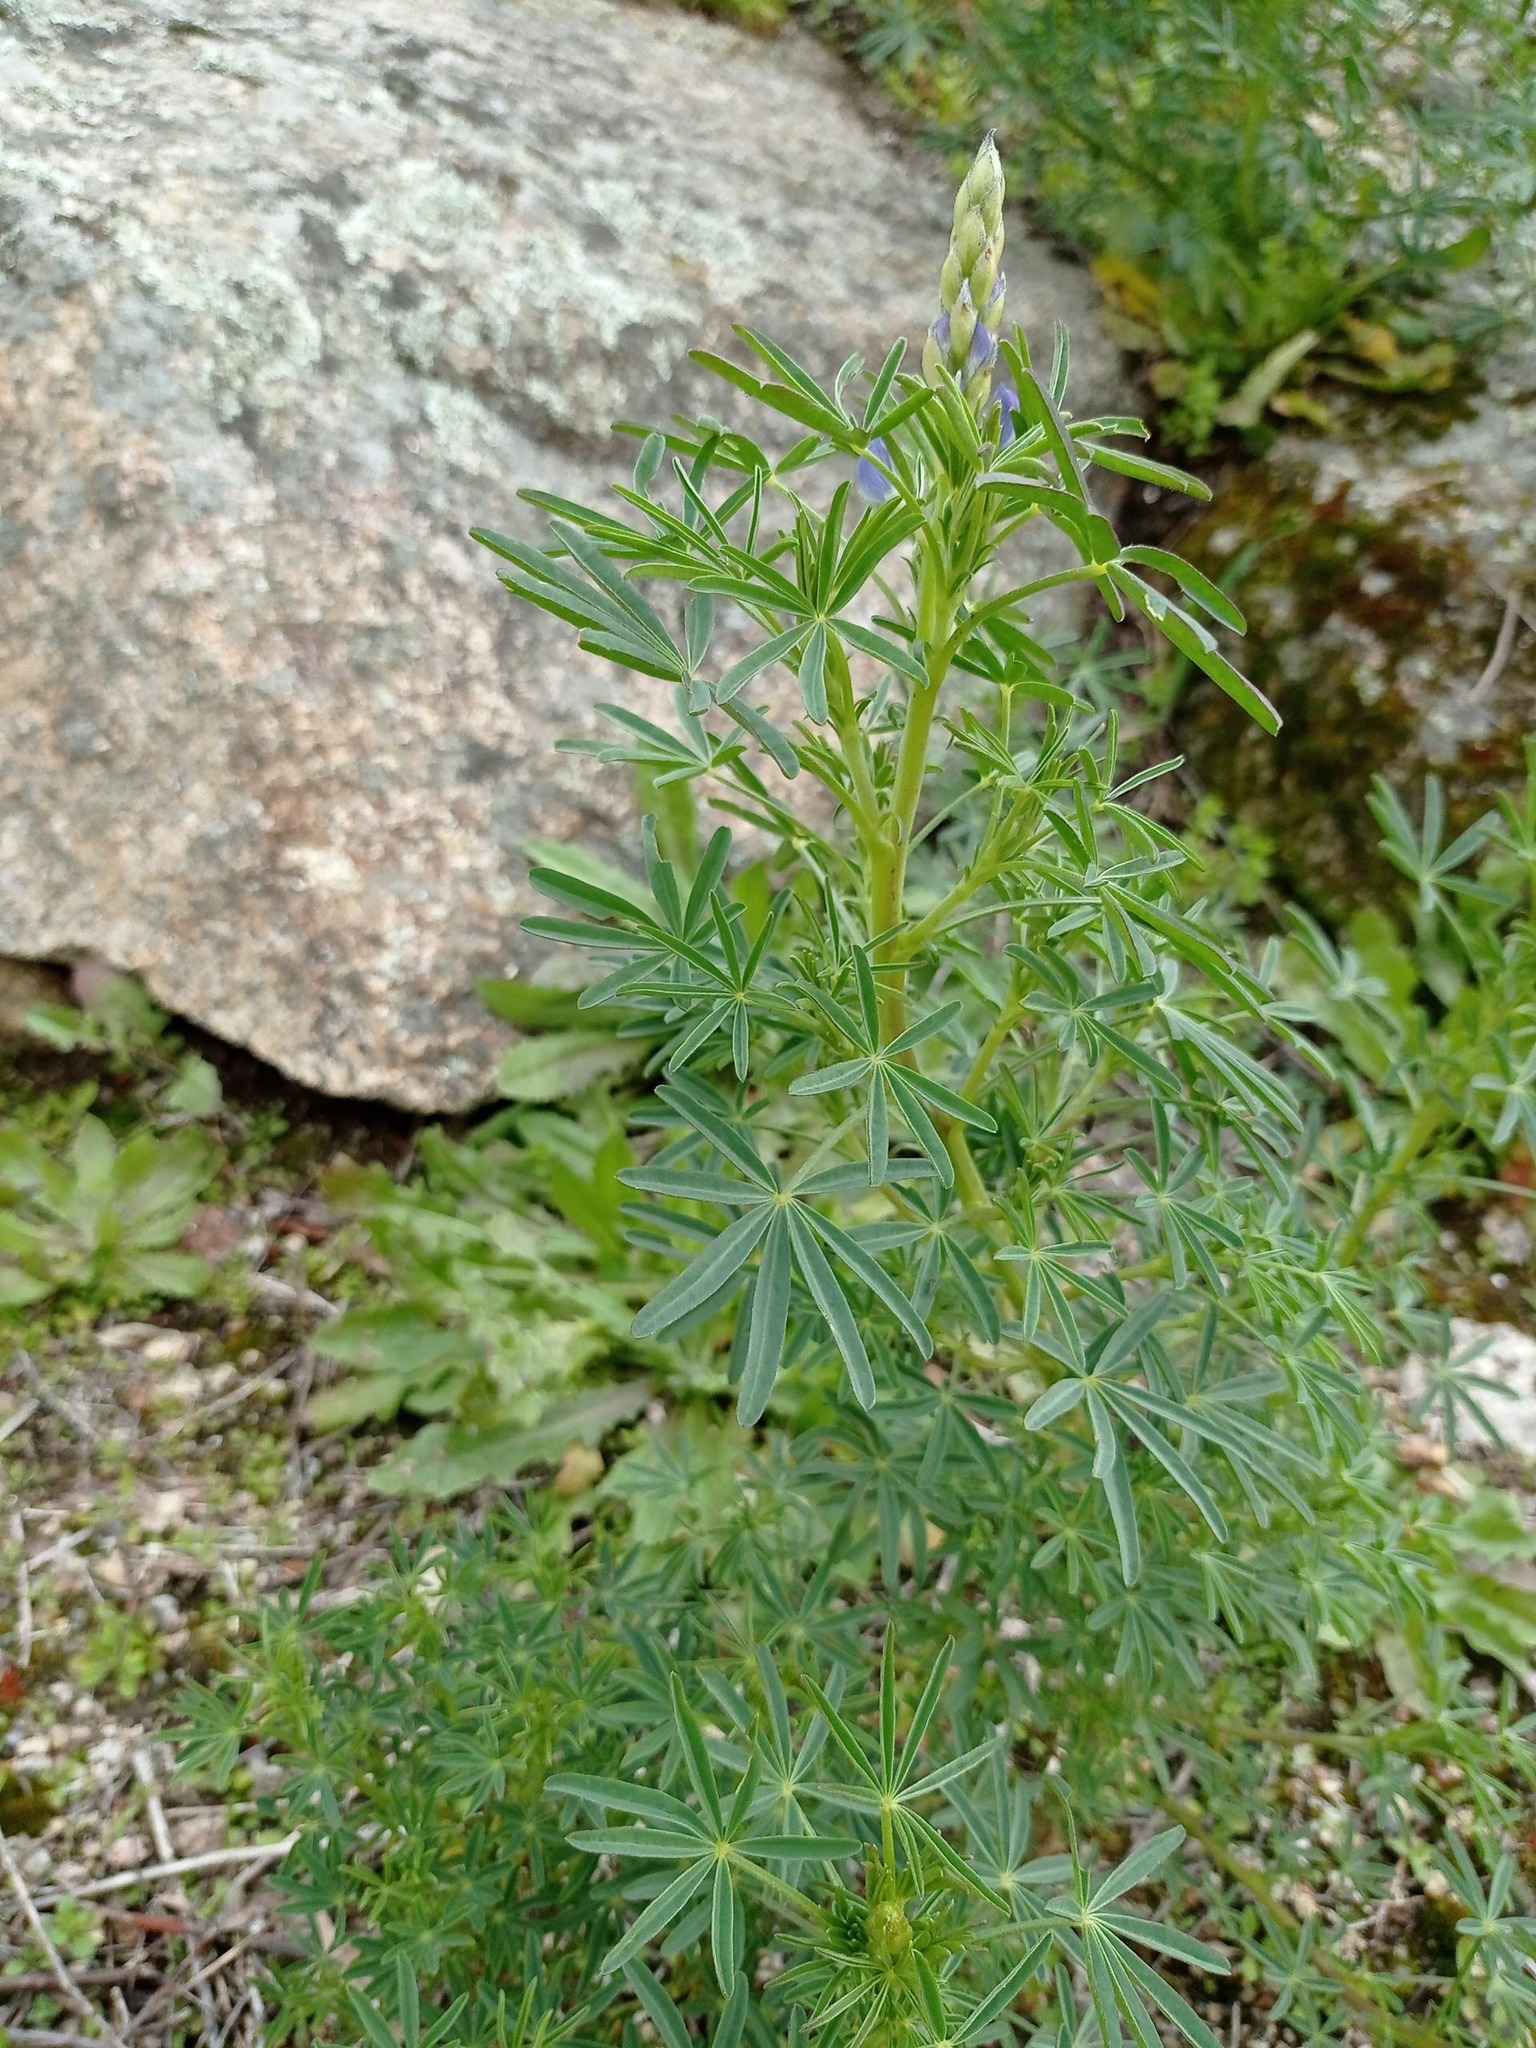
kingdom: Plantae
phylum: Tracheophyta
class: Magnoliopsida
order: Fabales
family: Fabaceae
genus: Lupinus
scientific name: Lupinus angustifolius
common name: Narrow-leaved lupin
